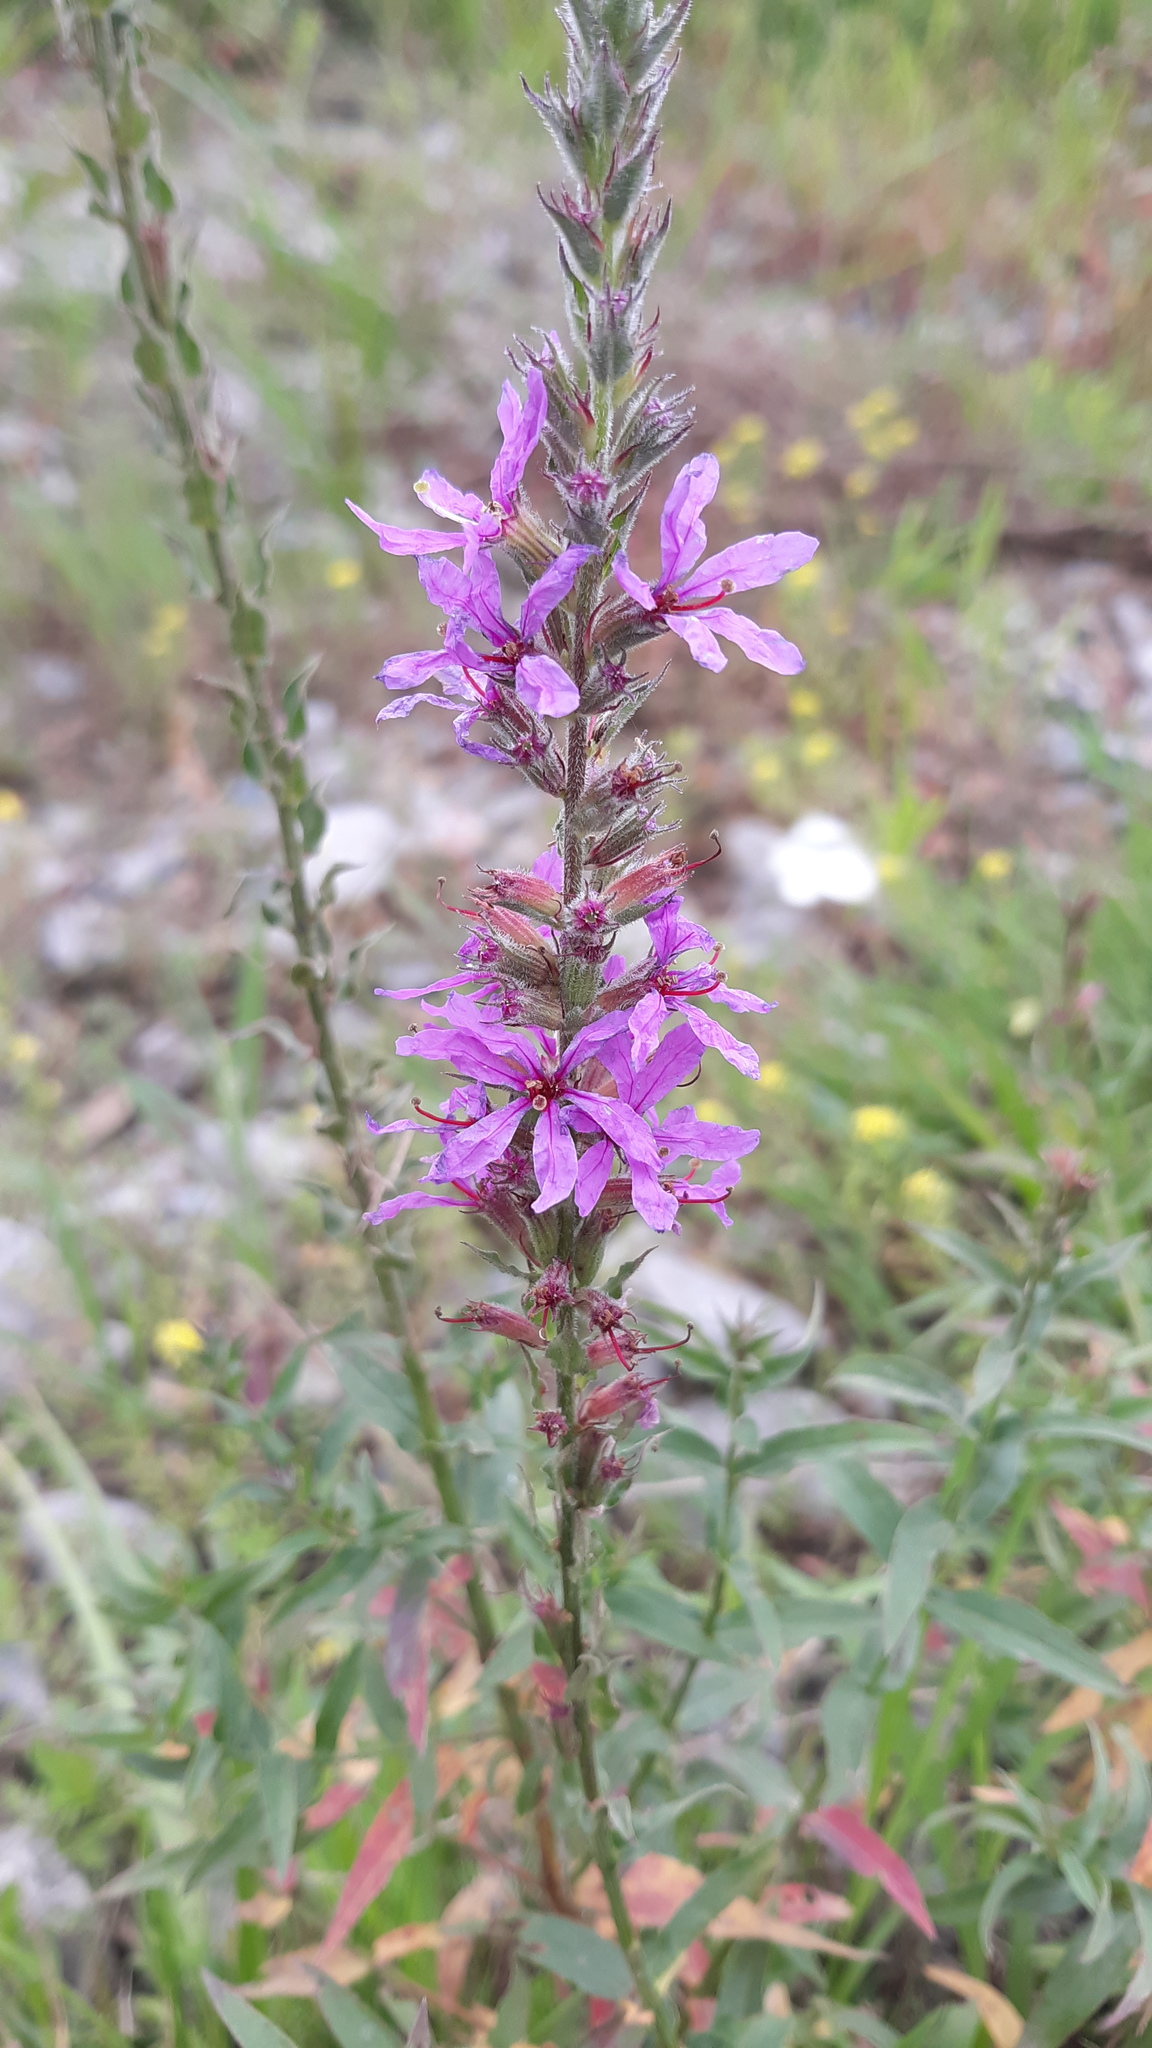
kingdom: Plantae
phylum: Tracheophyta
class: Magnoliopsida
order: Myrtales
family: Lythraceae
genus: Lythrum
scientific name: Lythrum salicaria
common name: Purple loosestrife
